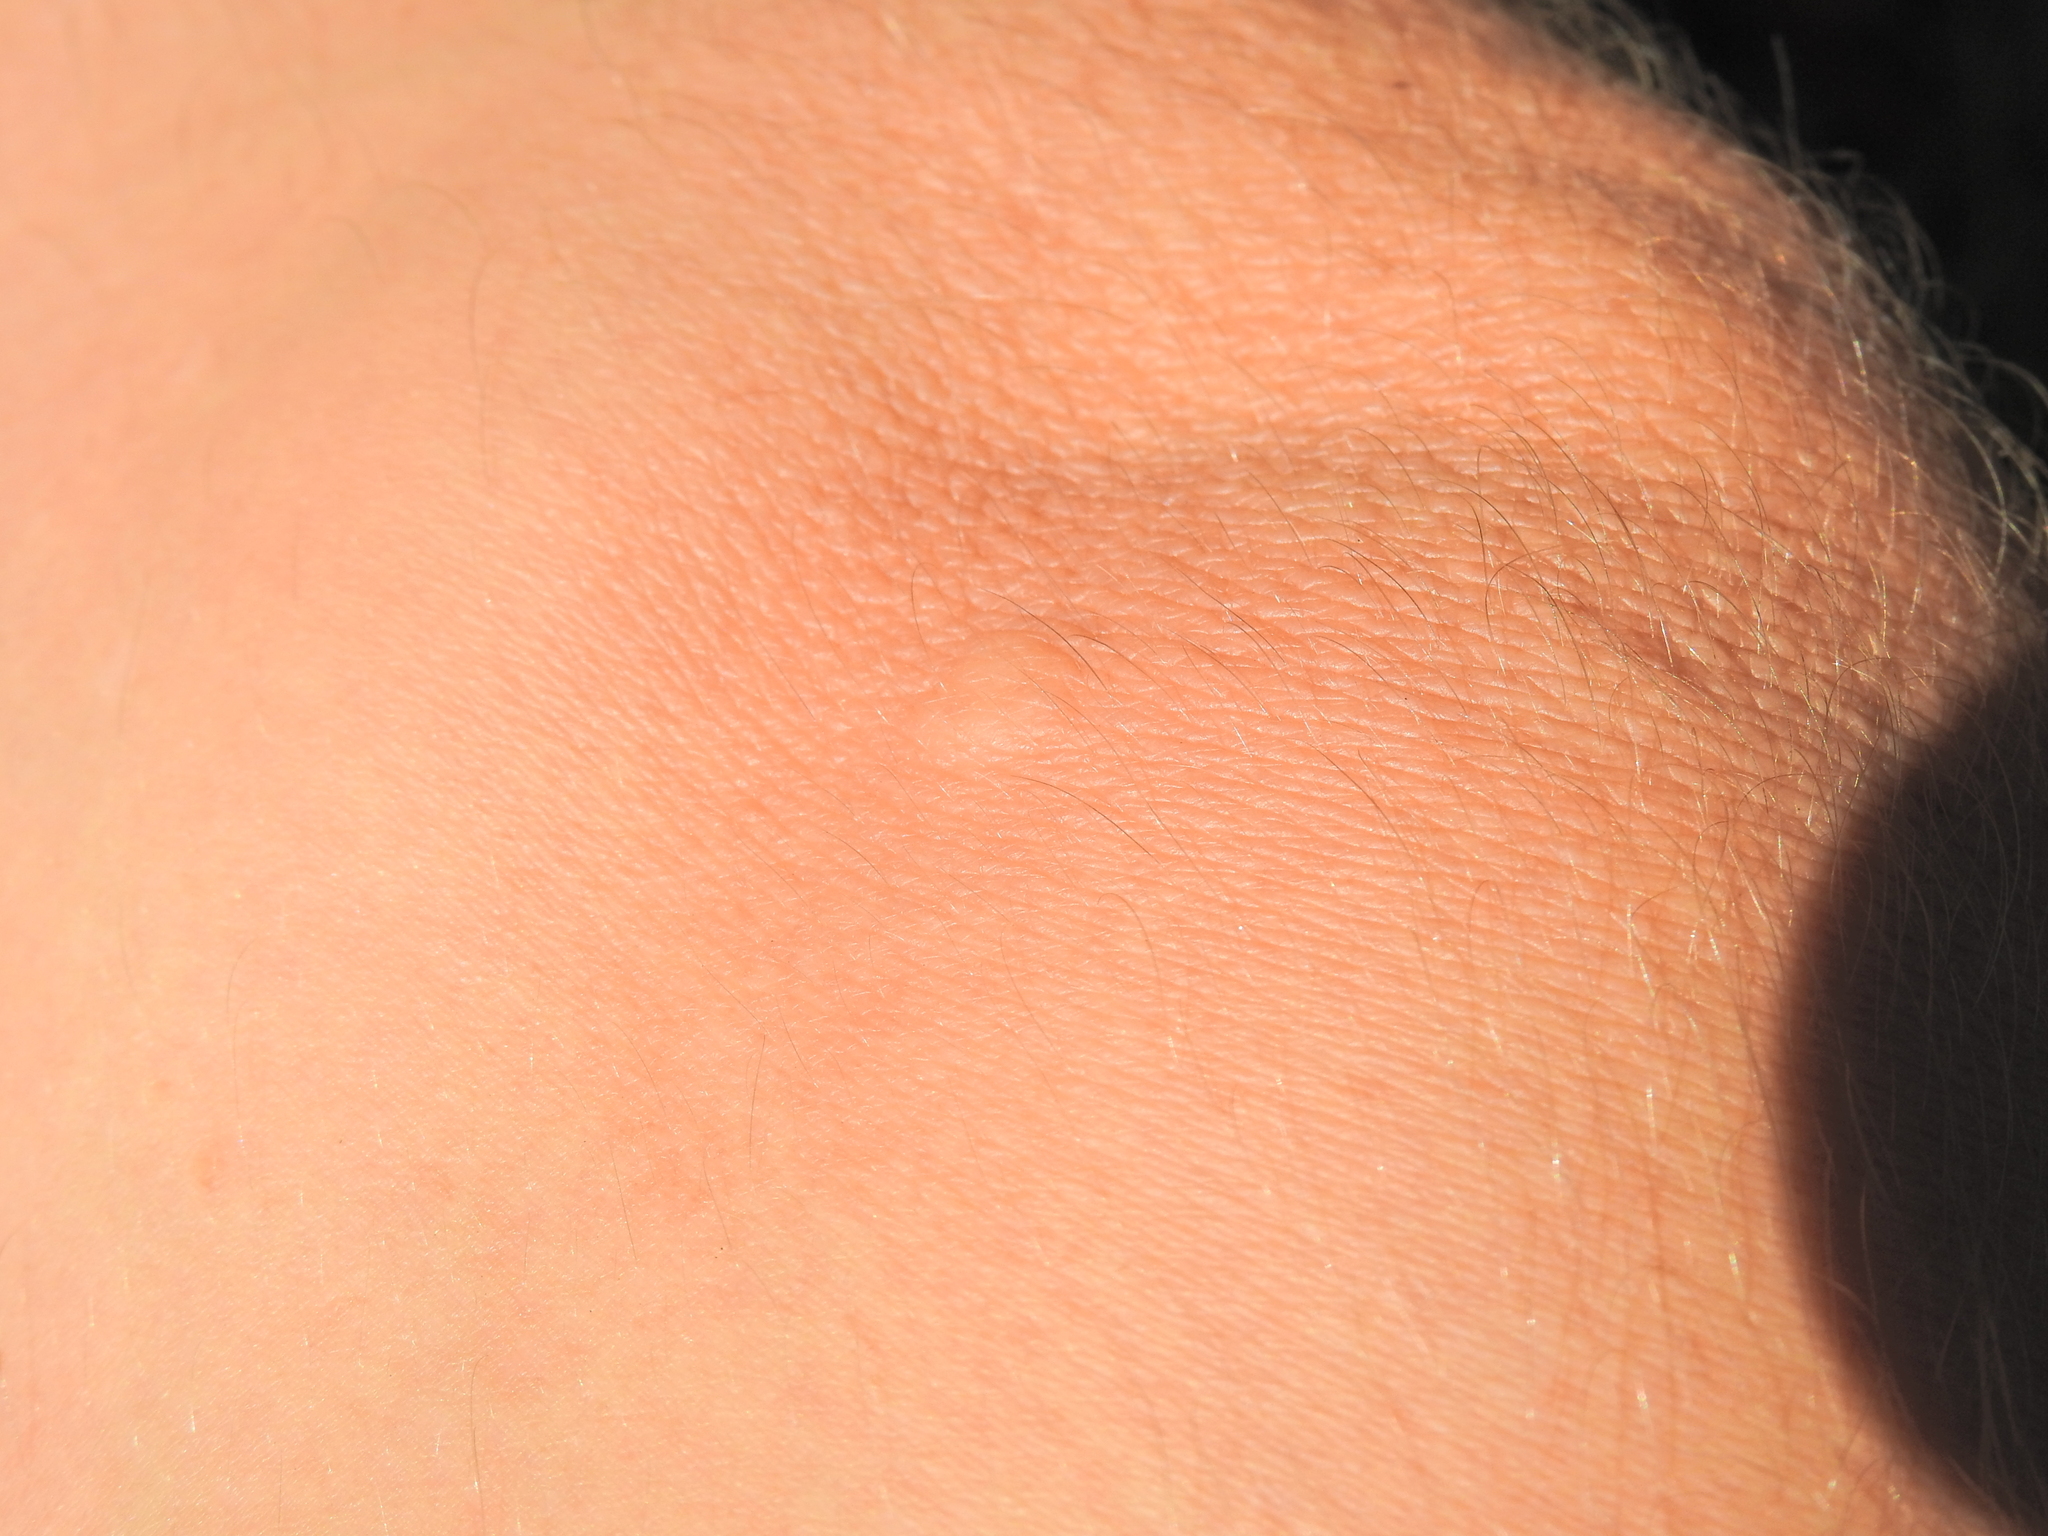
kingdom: Animalia
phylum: Arthropoda
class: Insecta
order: Lepidoptera
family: Limacodidae
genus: Anaxidia
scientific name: Anaxidia lozogramma
